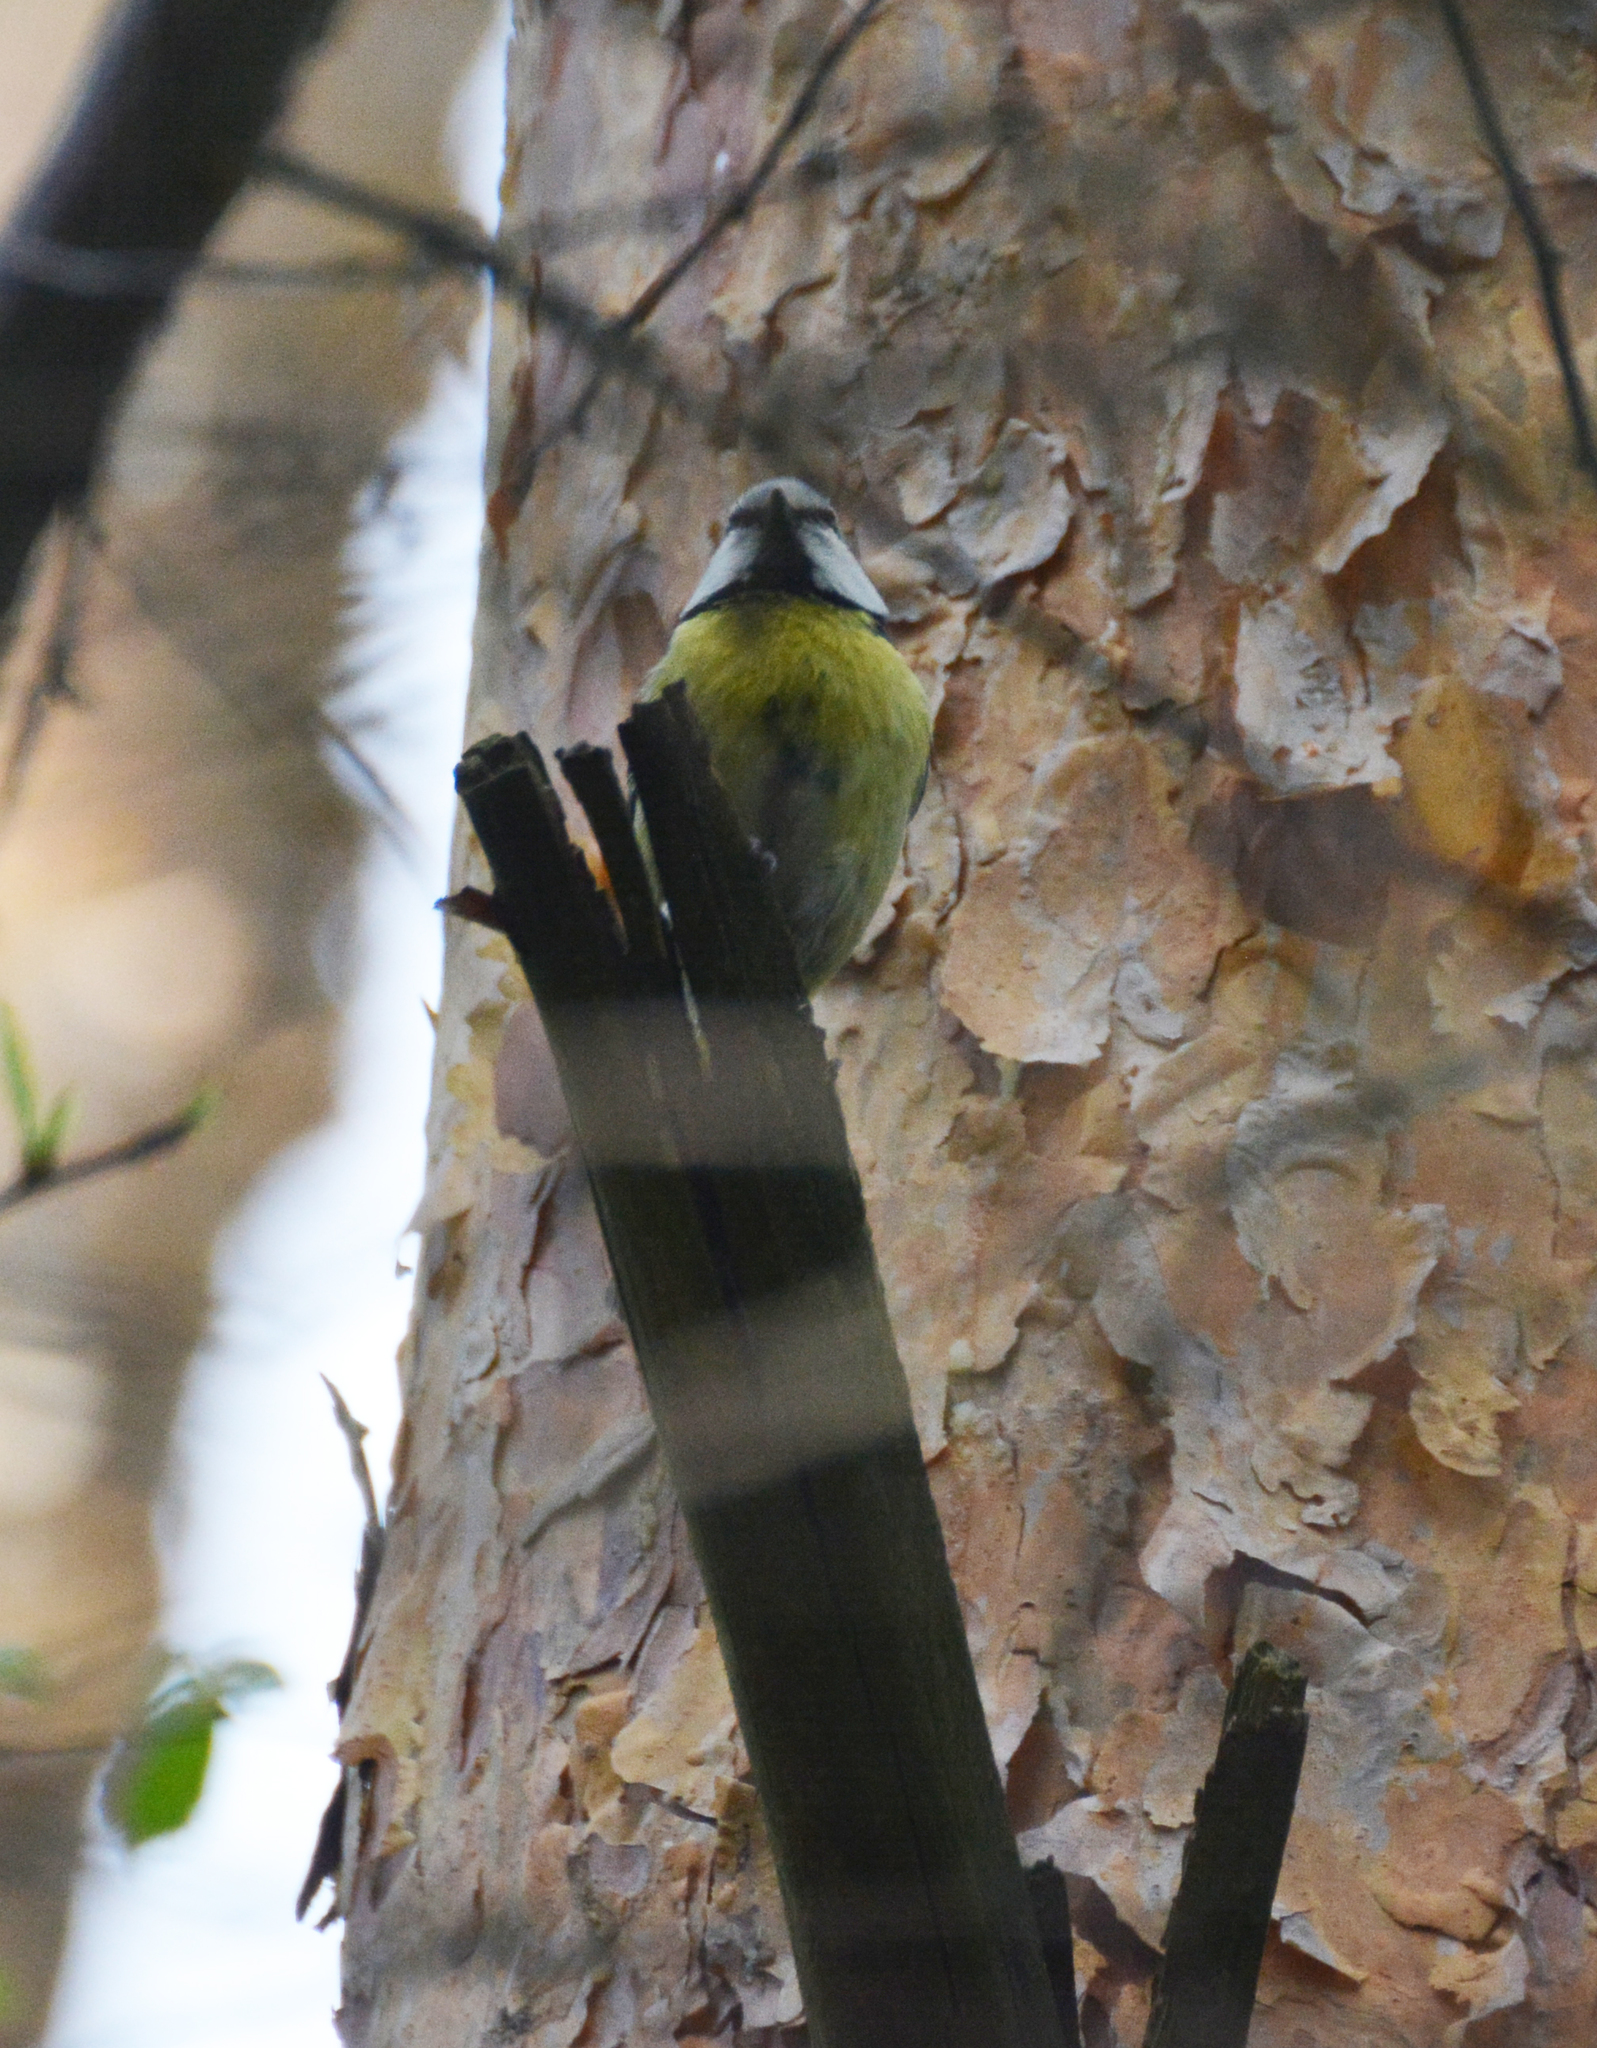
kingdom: Animalia
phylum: Chordata
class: Aves
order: Passeriformes
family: Paridae
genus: Cyanistes
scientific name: Cyanistes caeruleus
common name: Eurasian blue tit
